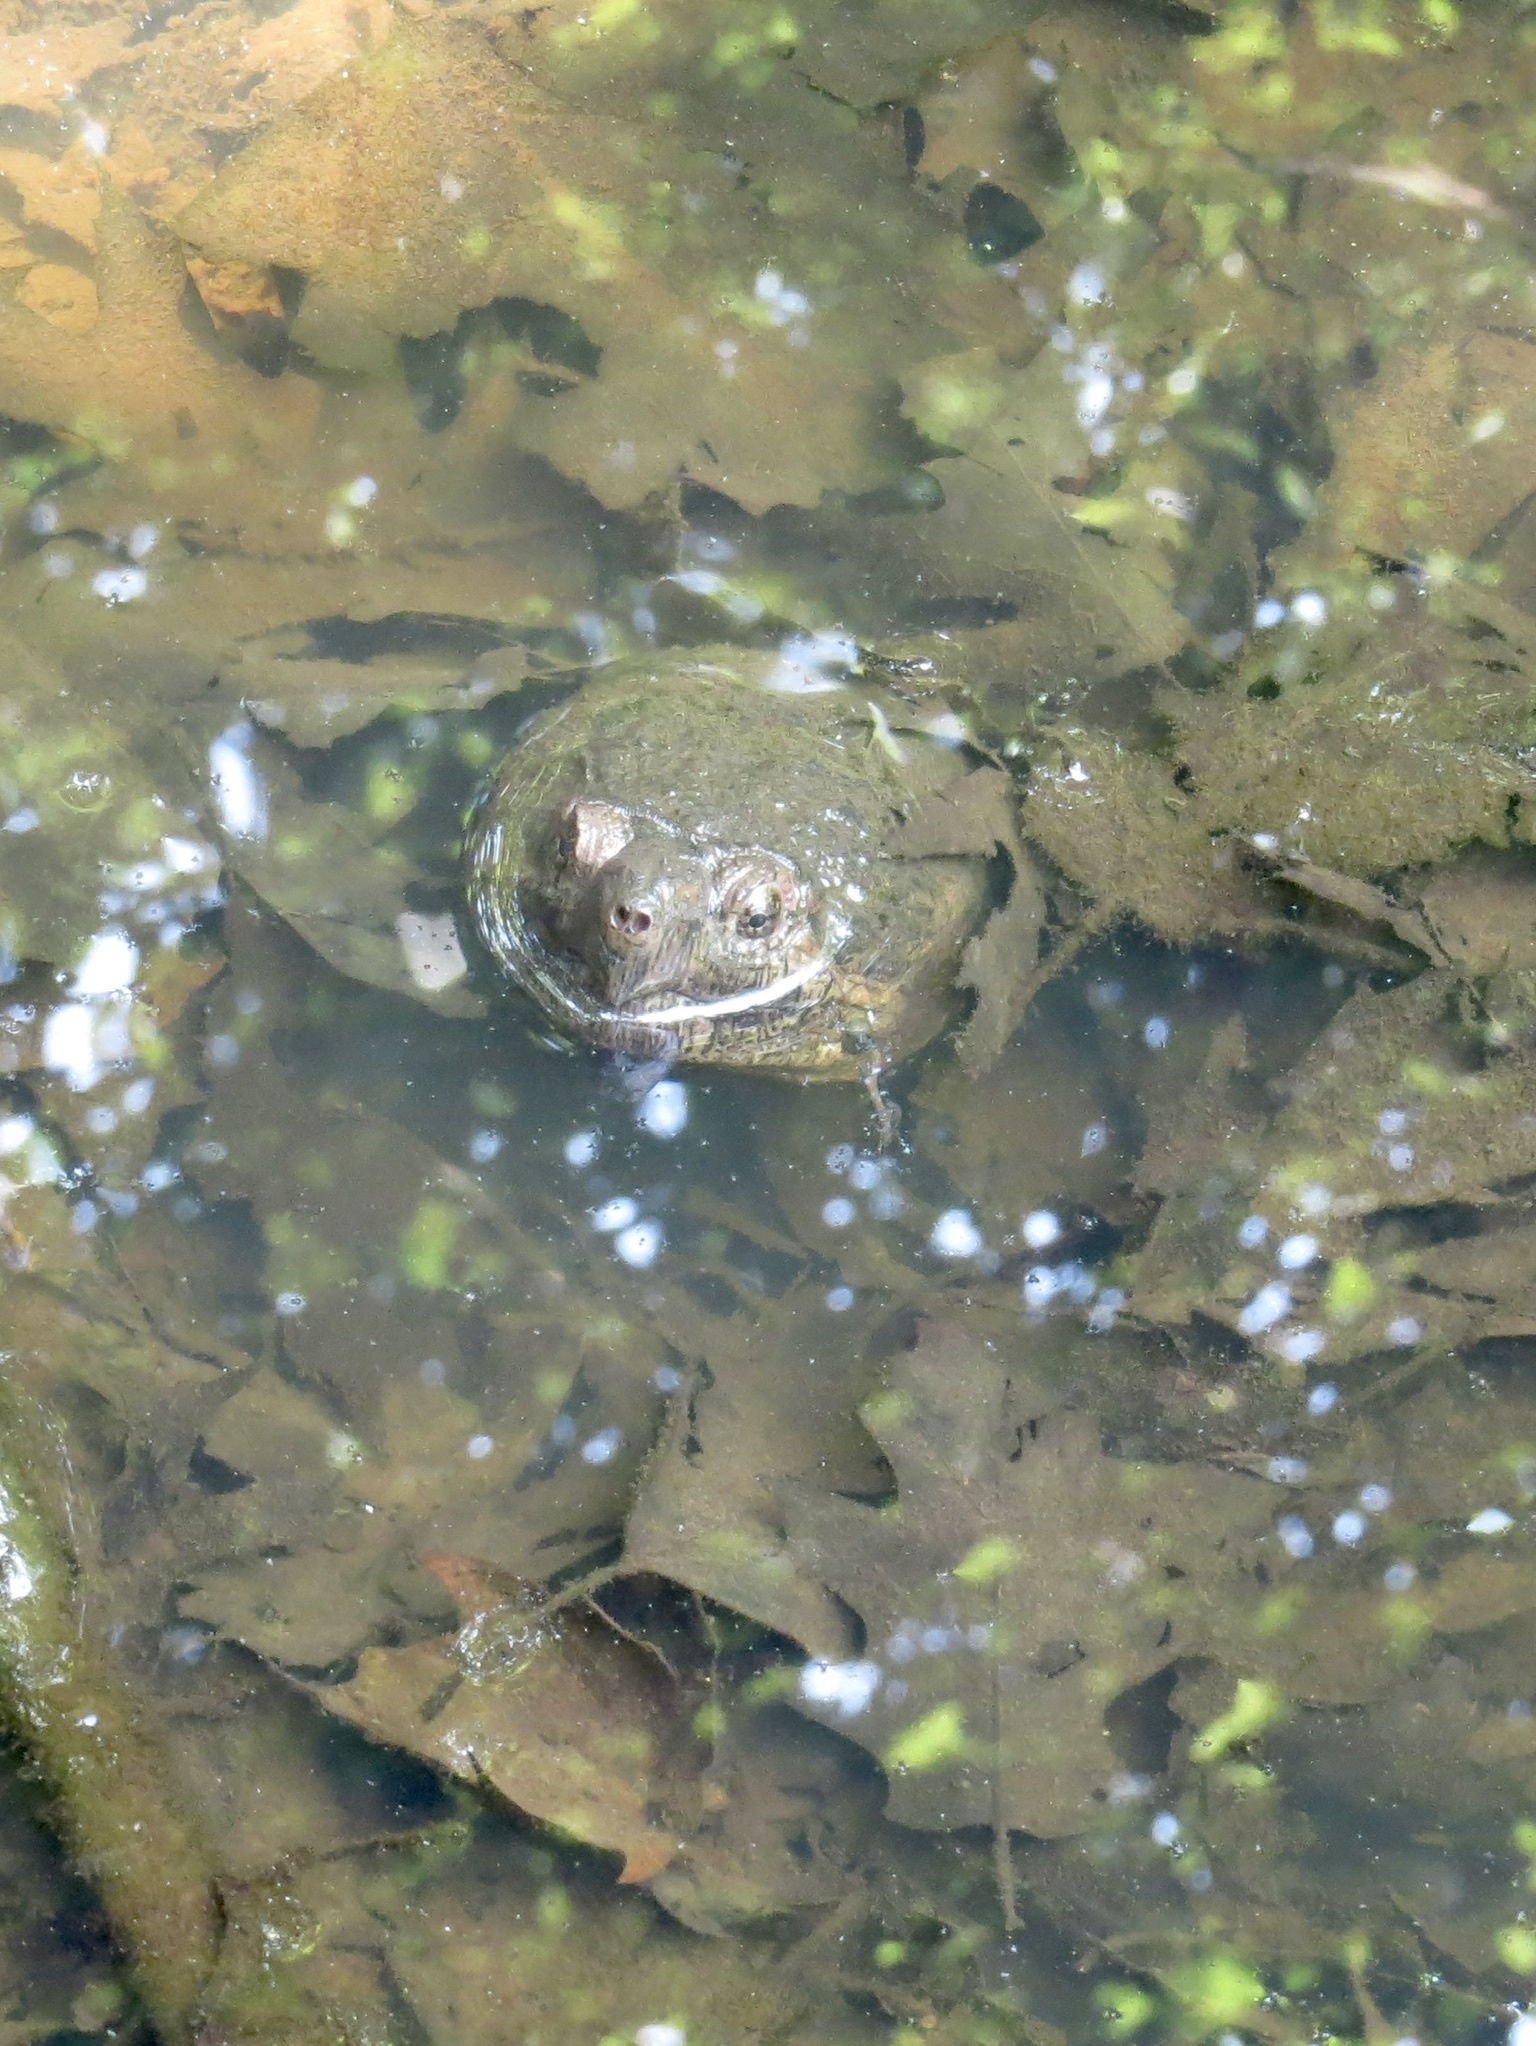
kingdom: Animalia
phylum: Chordata
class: Testudines
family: Chelydridae
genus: Chelydra
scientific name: Chelydra serpentina
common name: Common snapping turtle
